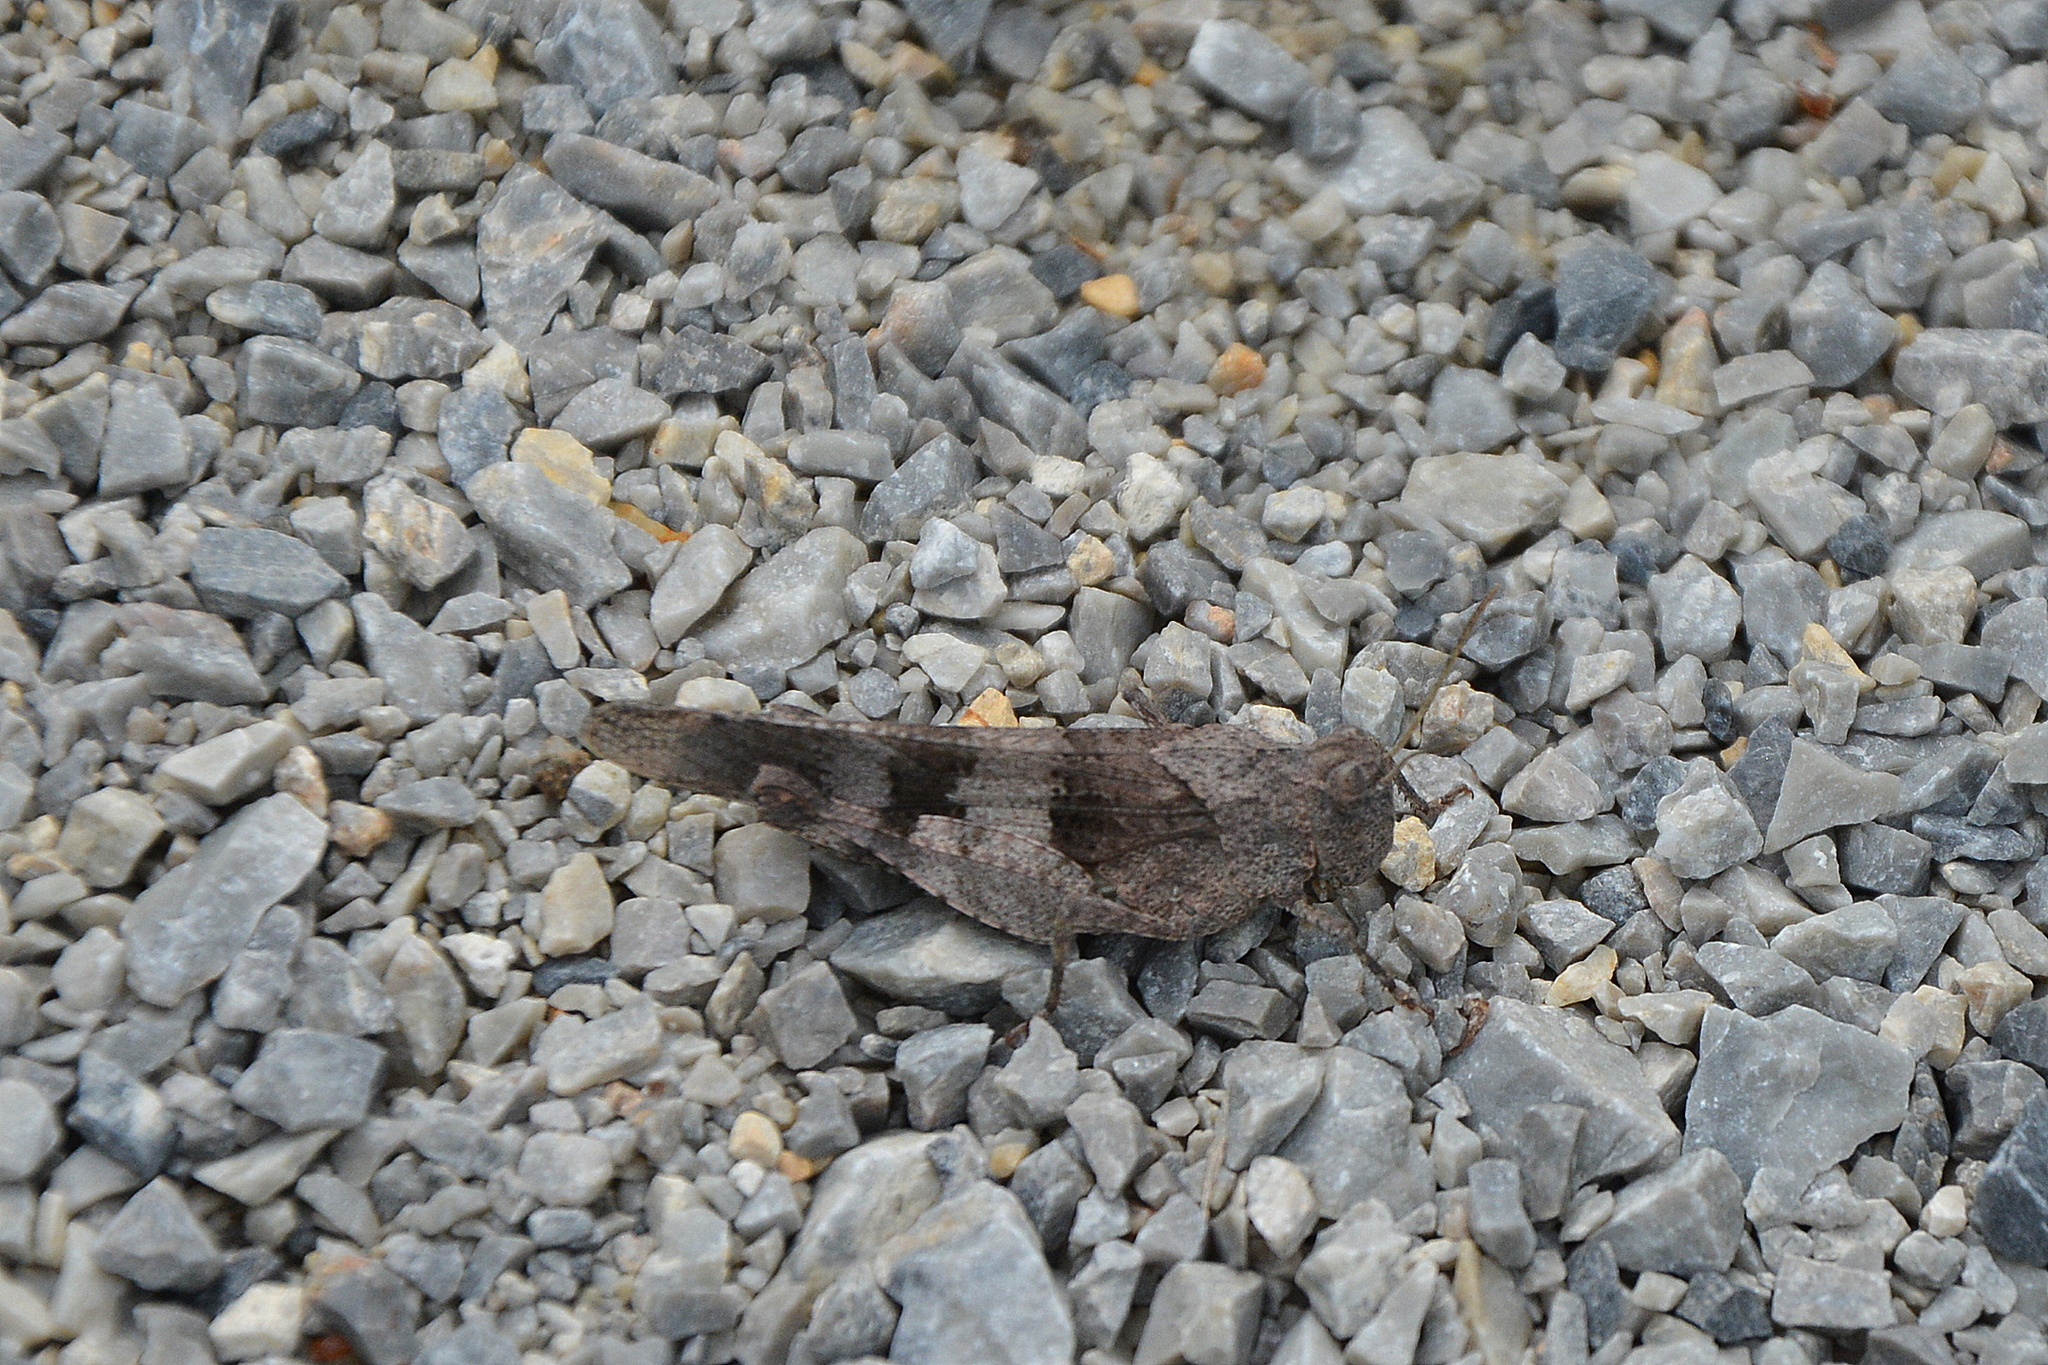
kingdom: Animalia
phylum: Arthropoda
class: Insecta
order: Orthoptera
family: Acrididae
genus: Oedipoda
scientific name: Oedipoda caerulescens
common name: Blue-winged grasshopper
